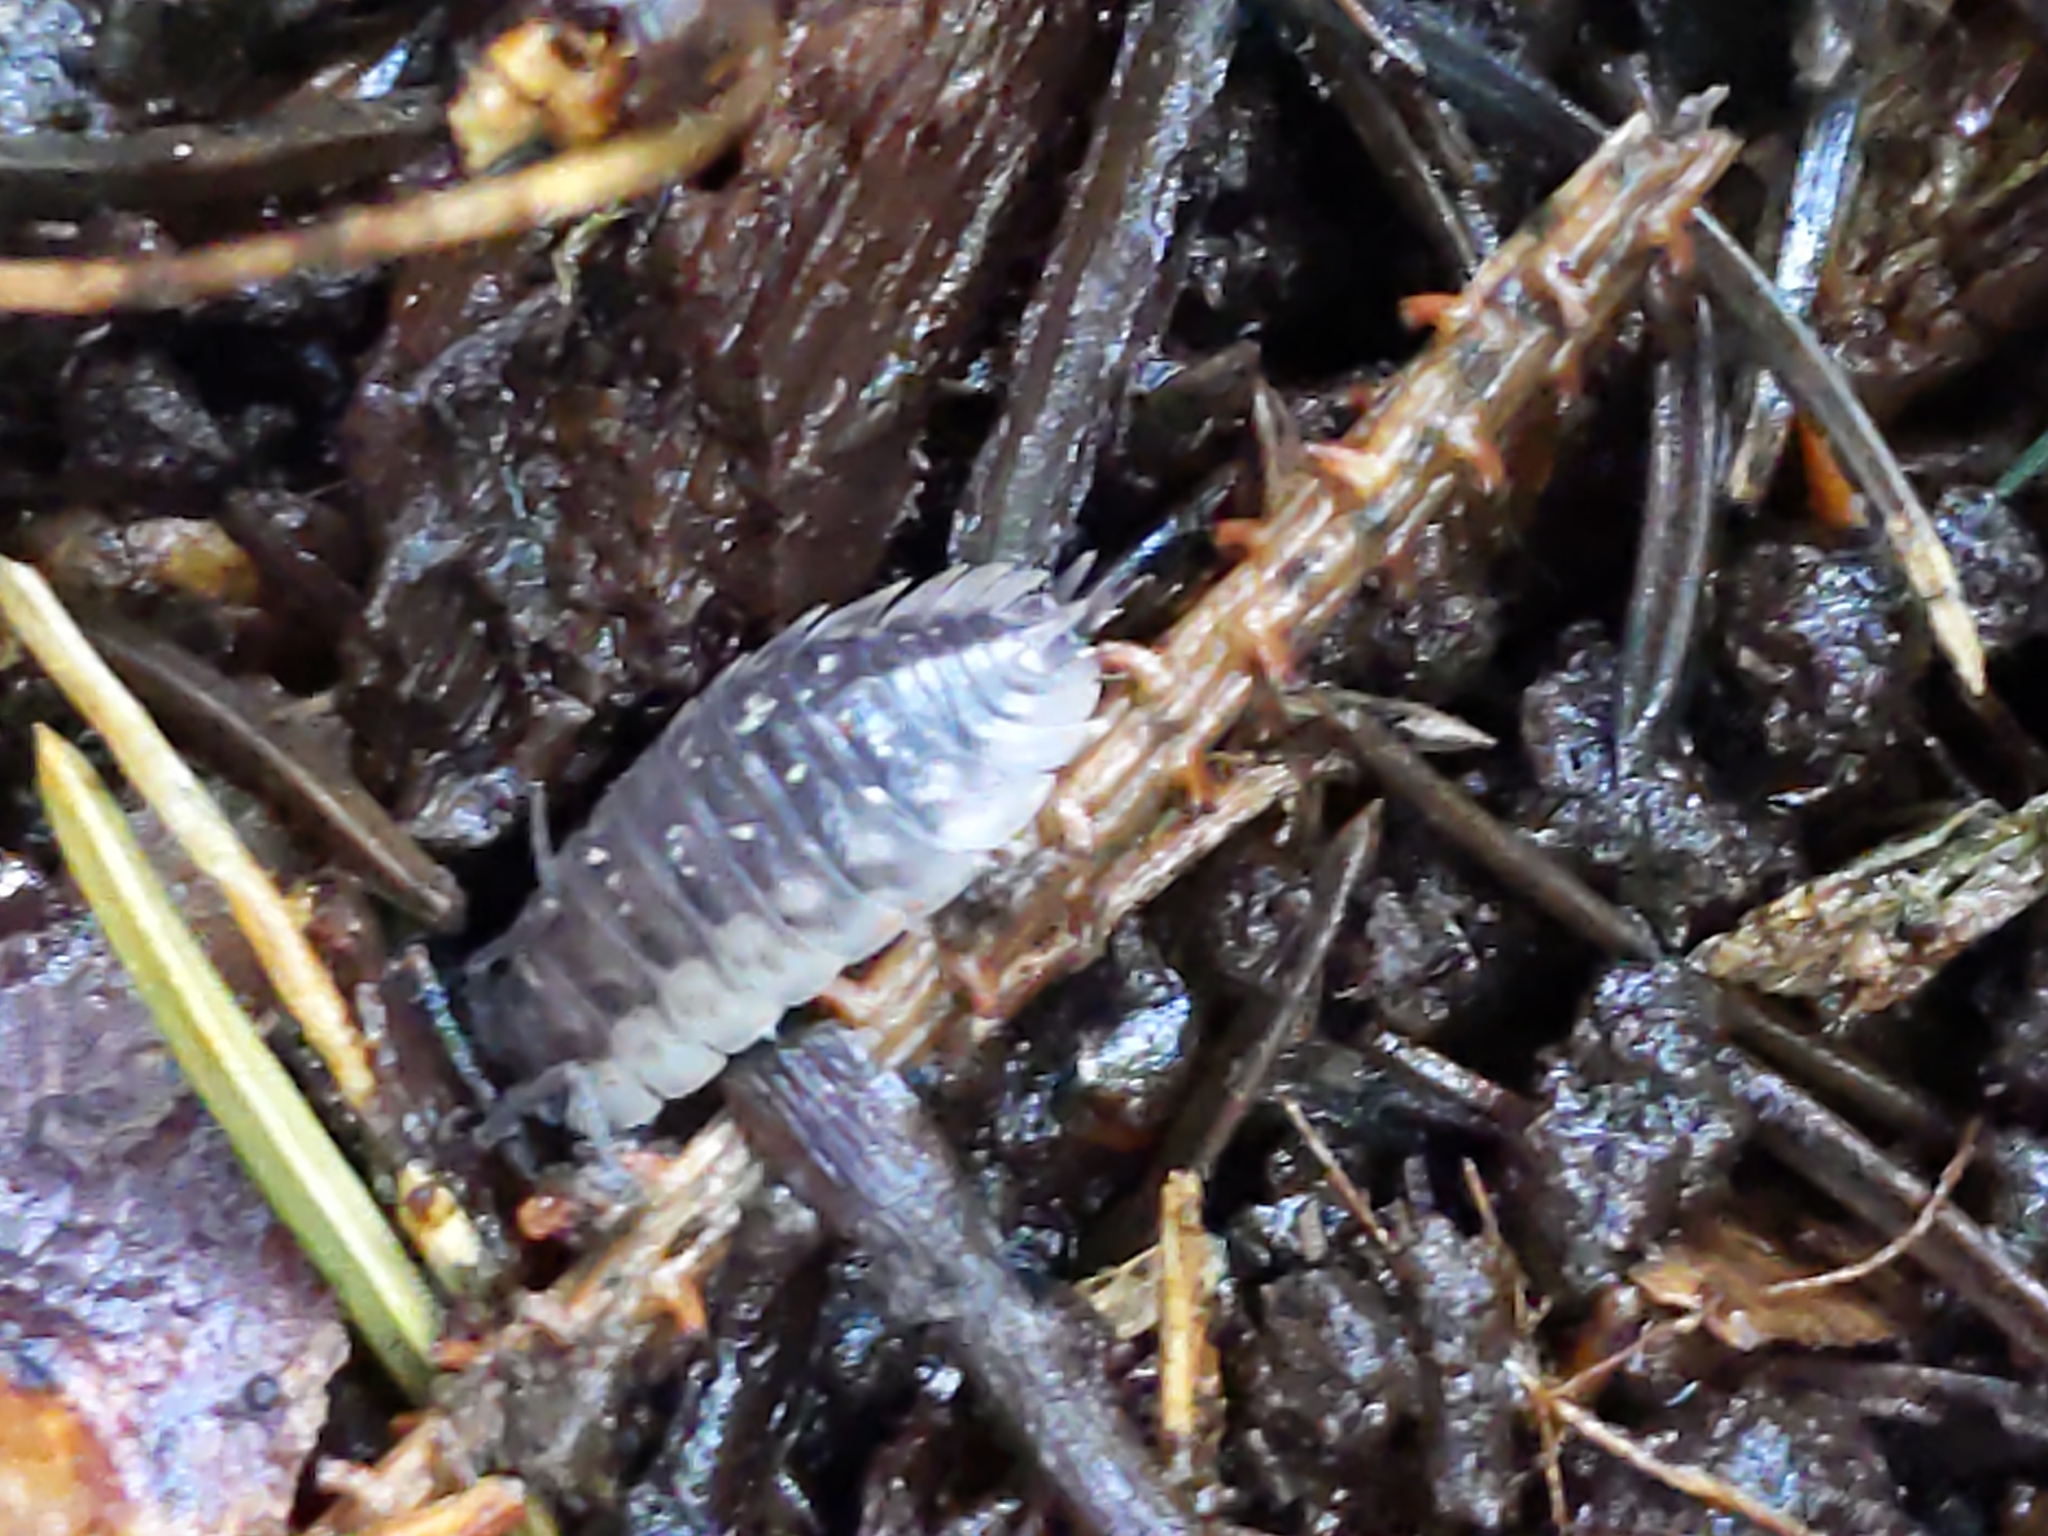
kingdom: Animalia
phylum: Arthropoda
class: Malacostraca
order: Isopoda
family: Oniscidae
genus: Oniscus
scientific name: Oniscus asellus
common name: Common shiny woodlouse
